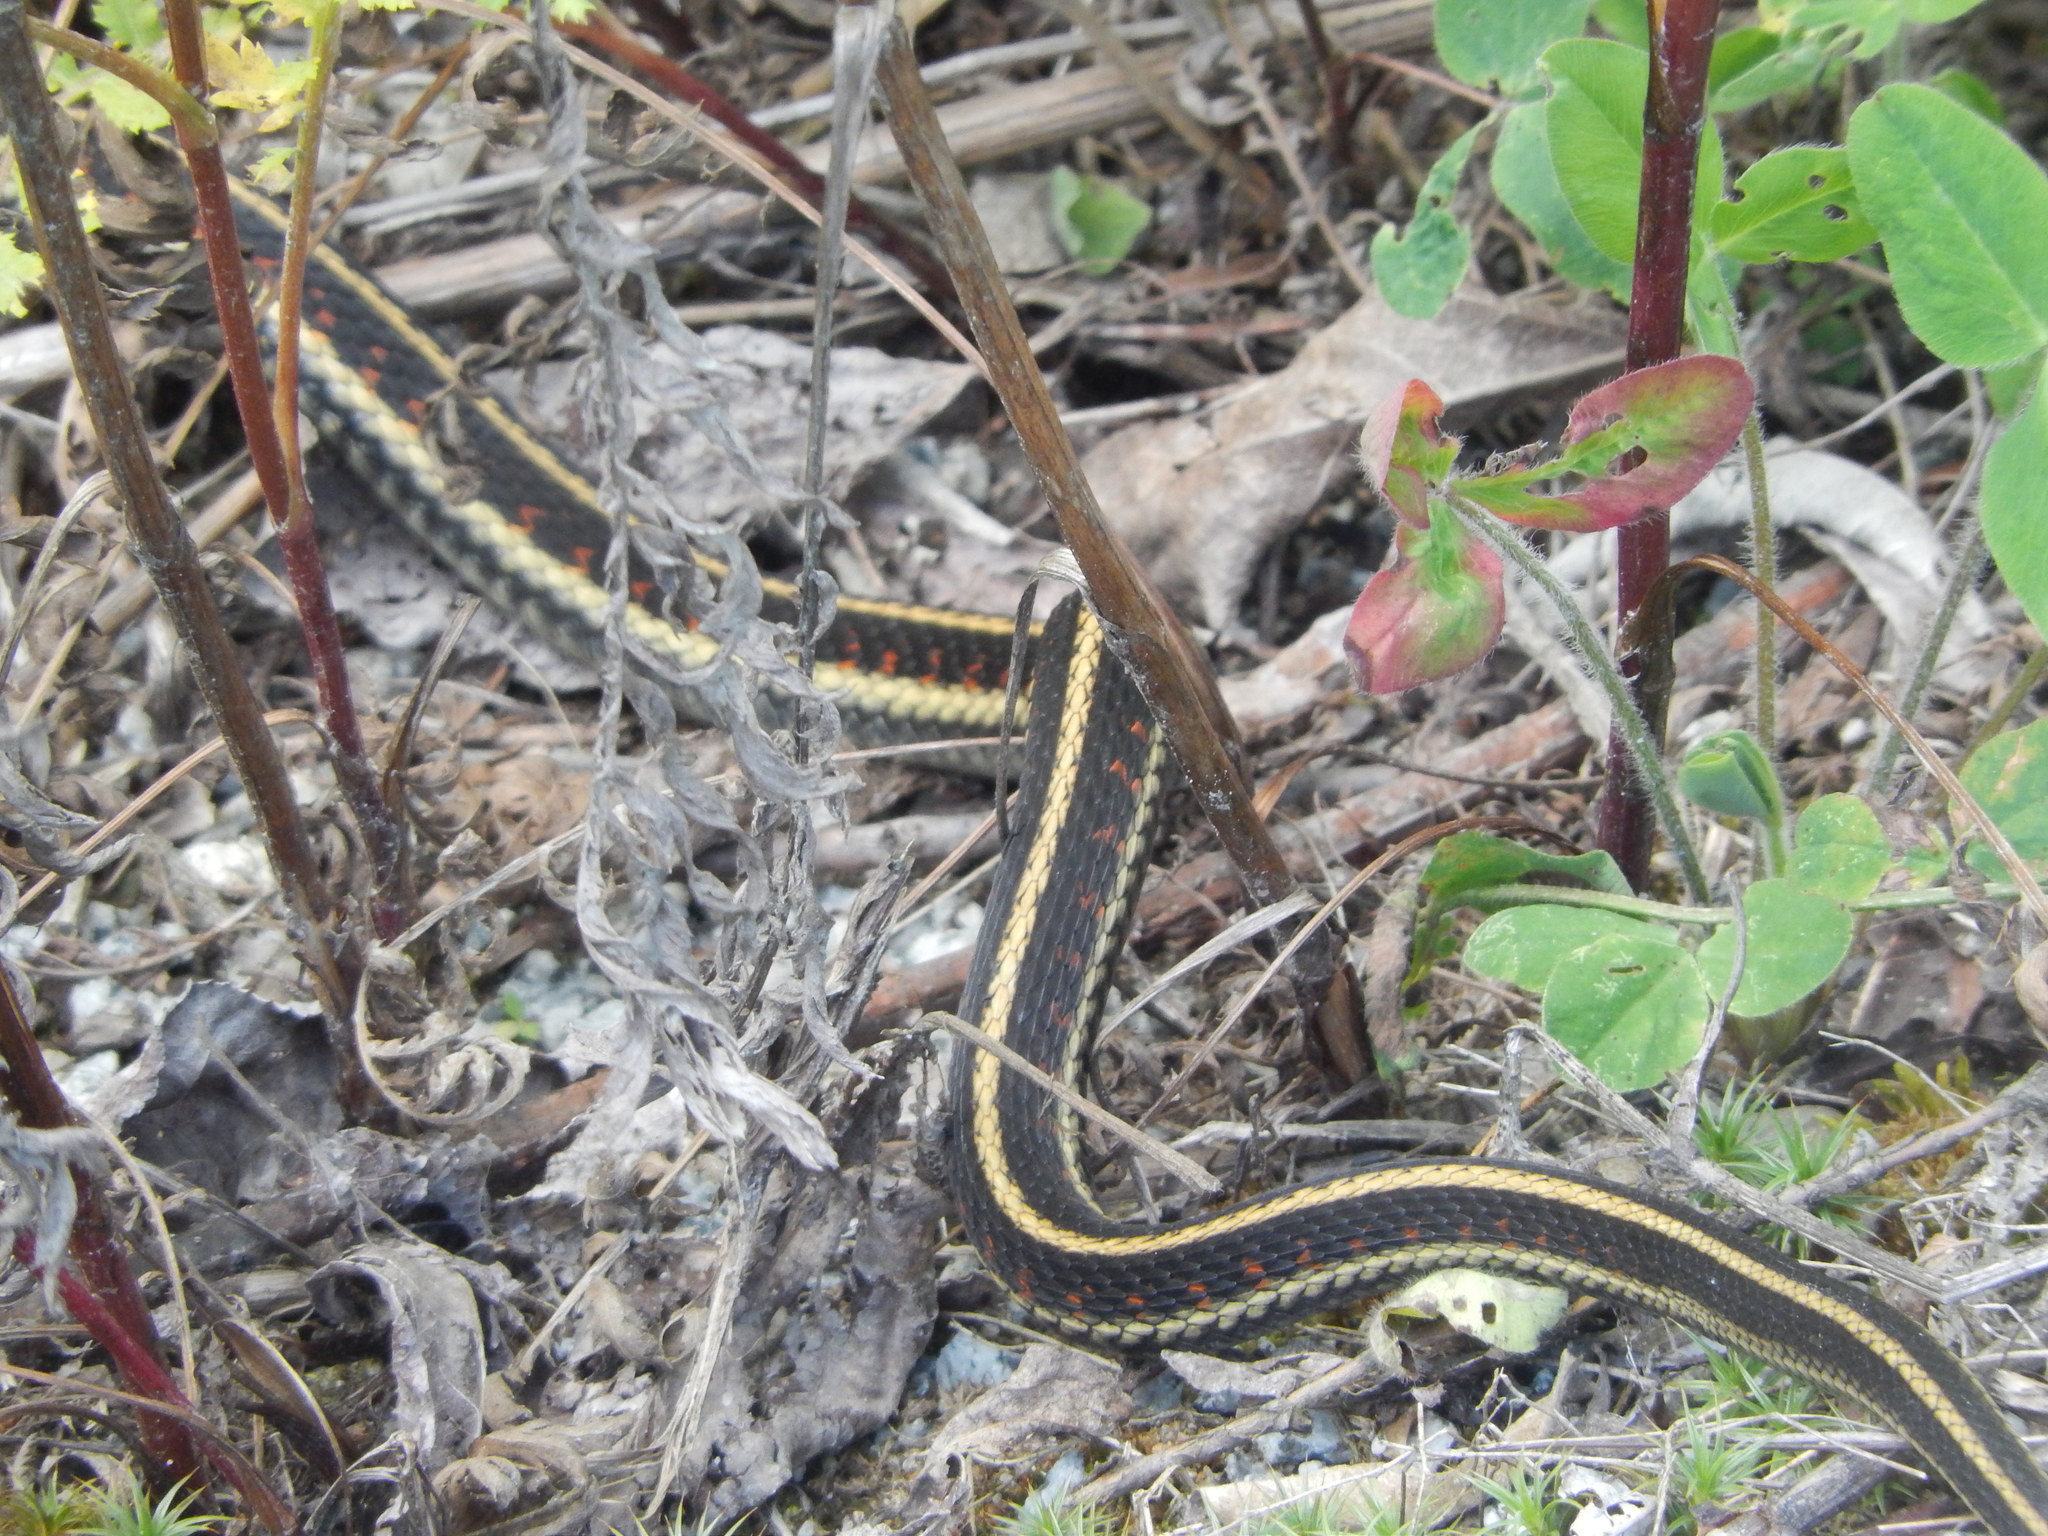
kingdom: Animalia
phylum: Chordata
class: Squamata
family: Colubridae
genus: Thamnophis
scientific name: Thamnophis sirtalis
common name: Common garter snake
